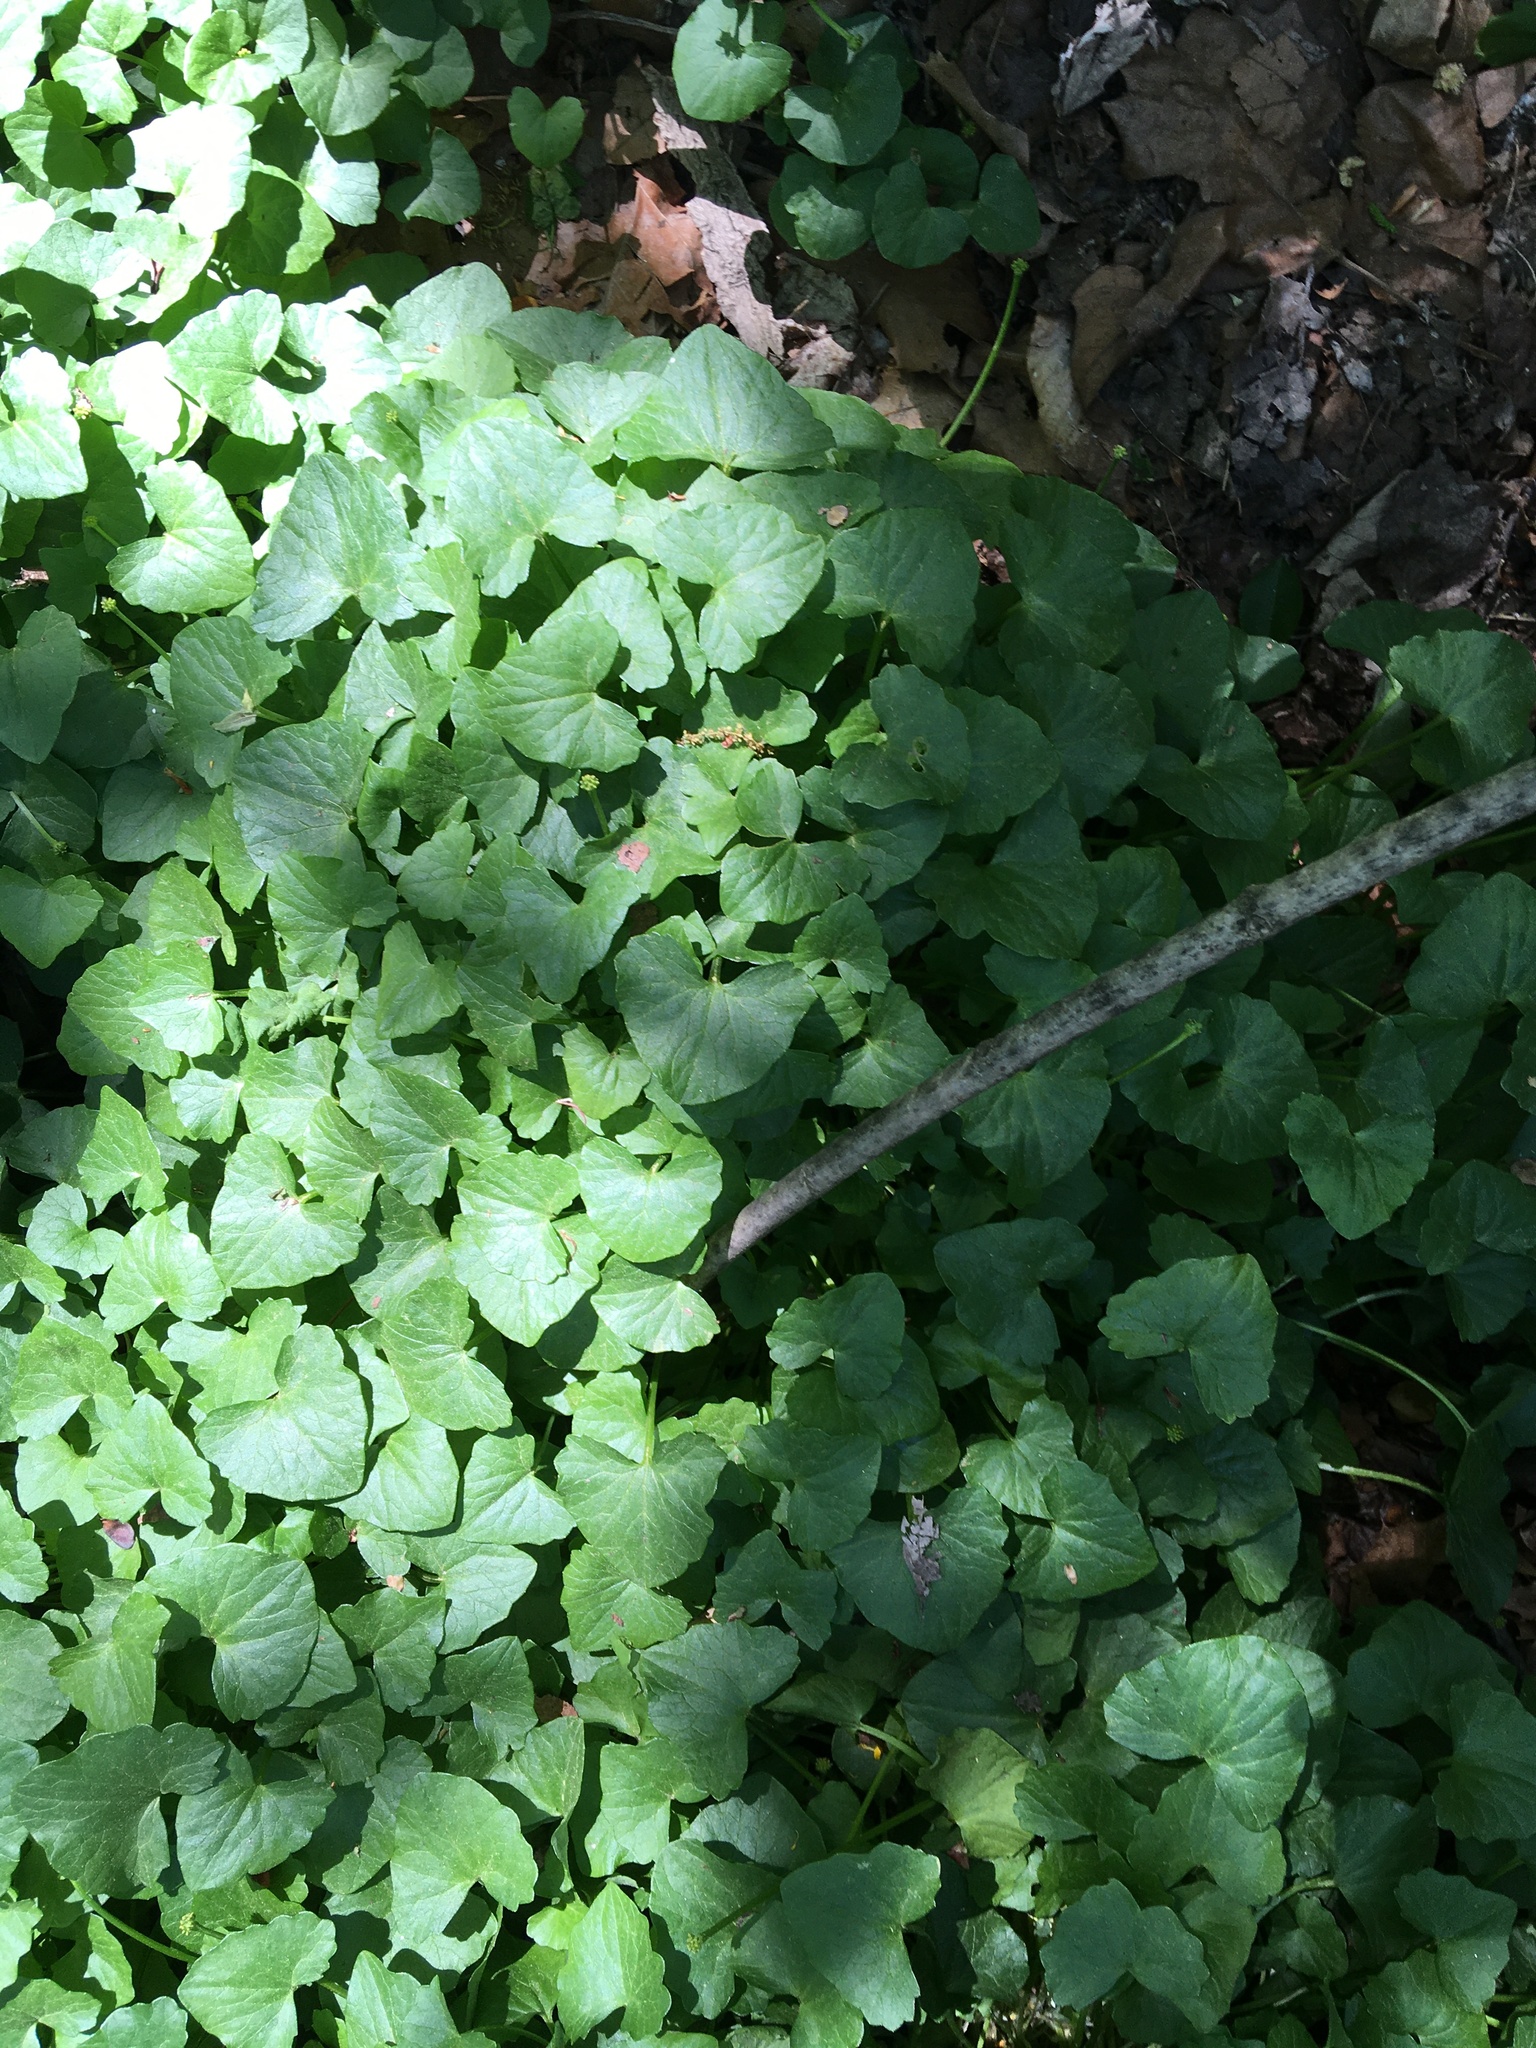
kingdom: Plantae
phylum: Tracheophyta
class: Magnoliopsida
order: Ranunculales
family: Ranunculaceae
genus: Ficaria
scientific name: Ficaria verna
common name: Lesser celandine
